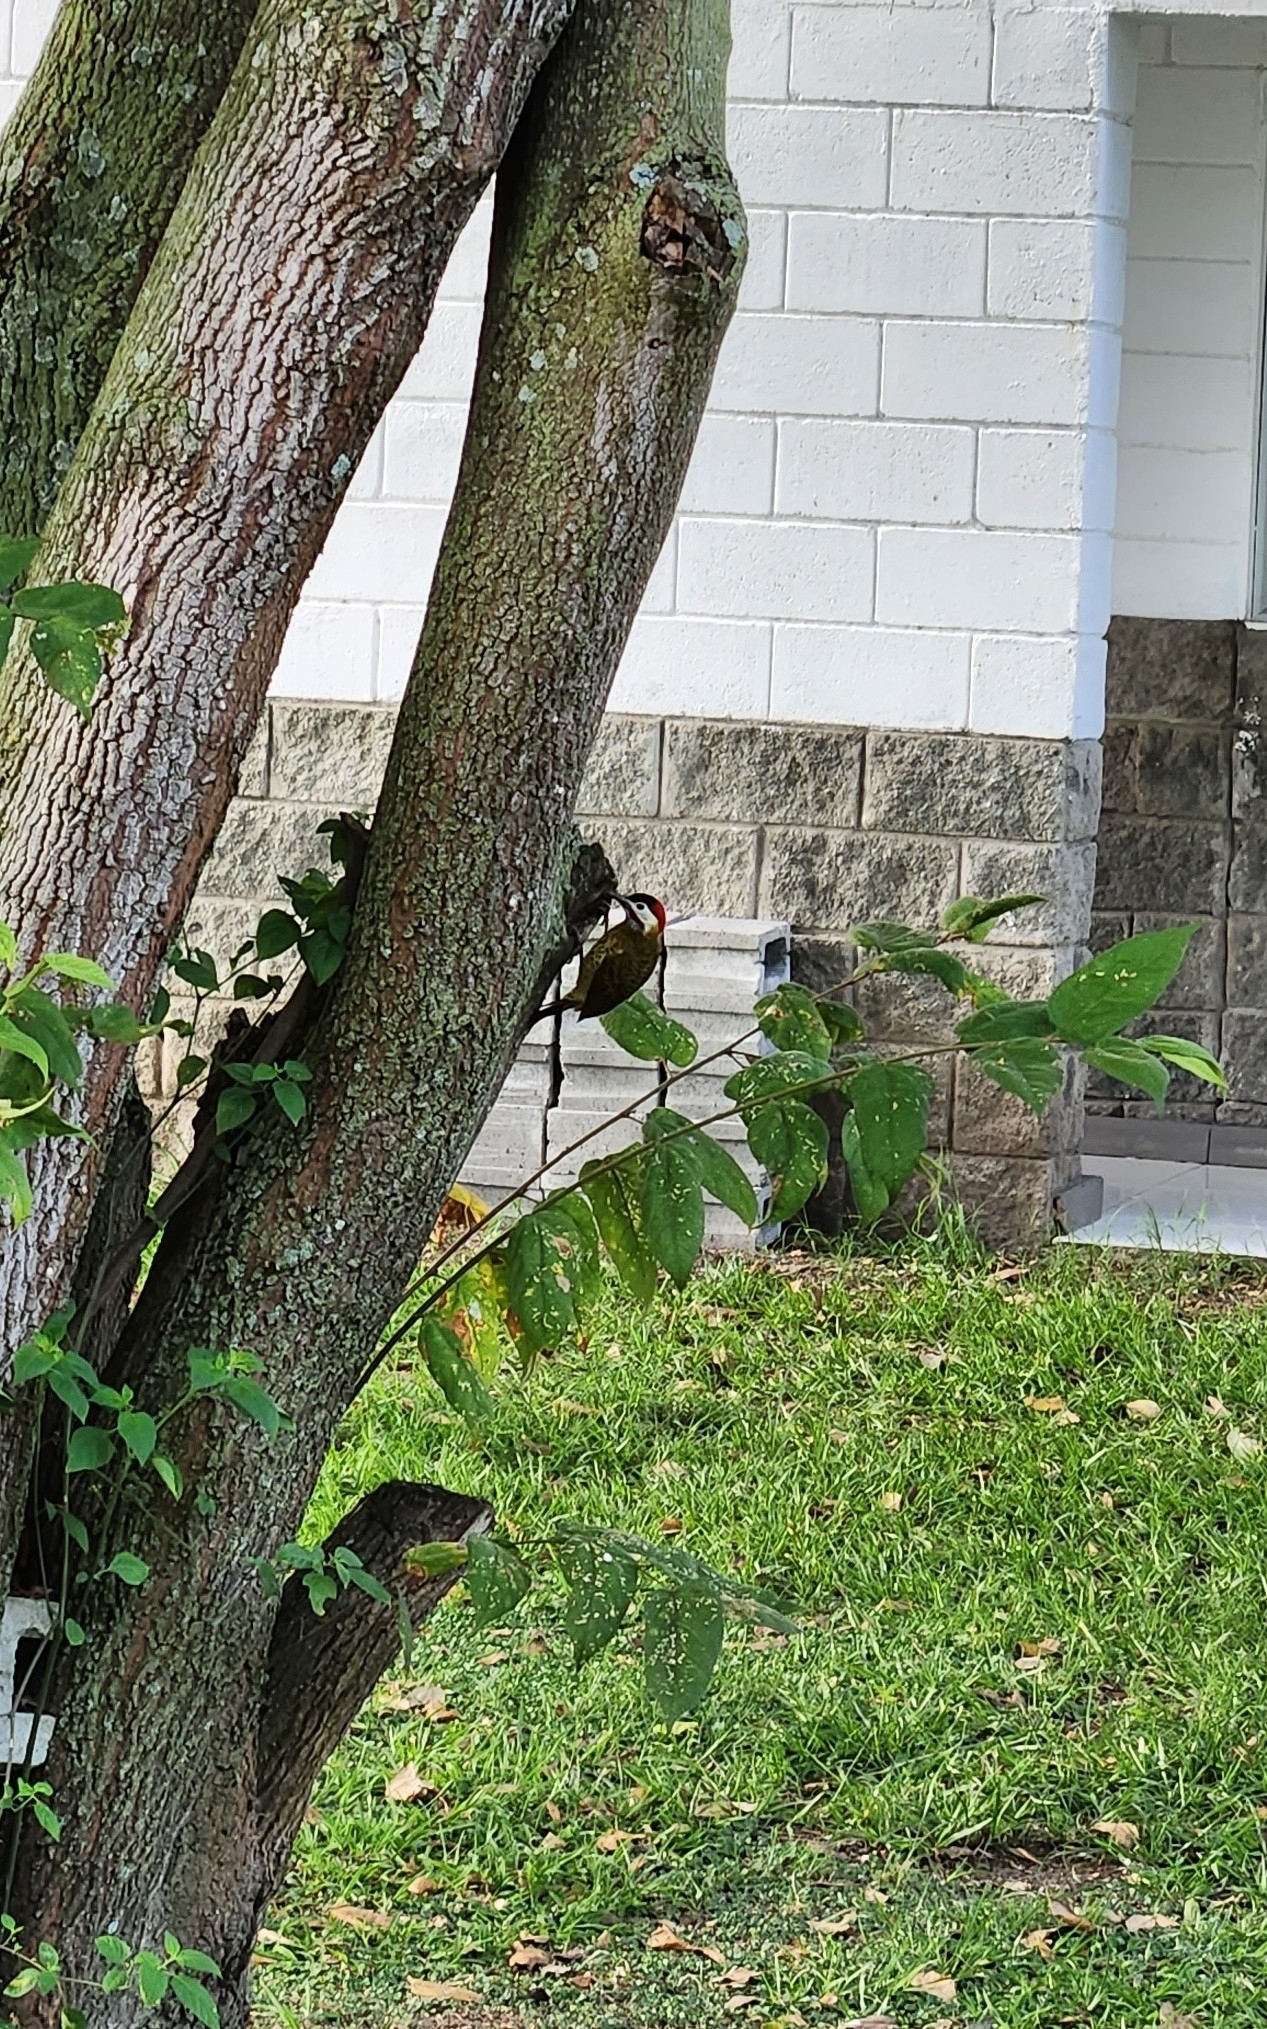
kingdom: Animalia
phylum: Chordata
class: Aves
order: Piciformes
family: Picidae
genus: Colaptes
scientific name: Colaptes punctigula
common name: Spot-breasted woodpecker
